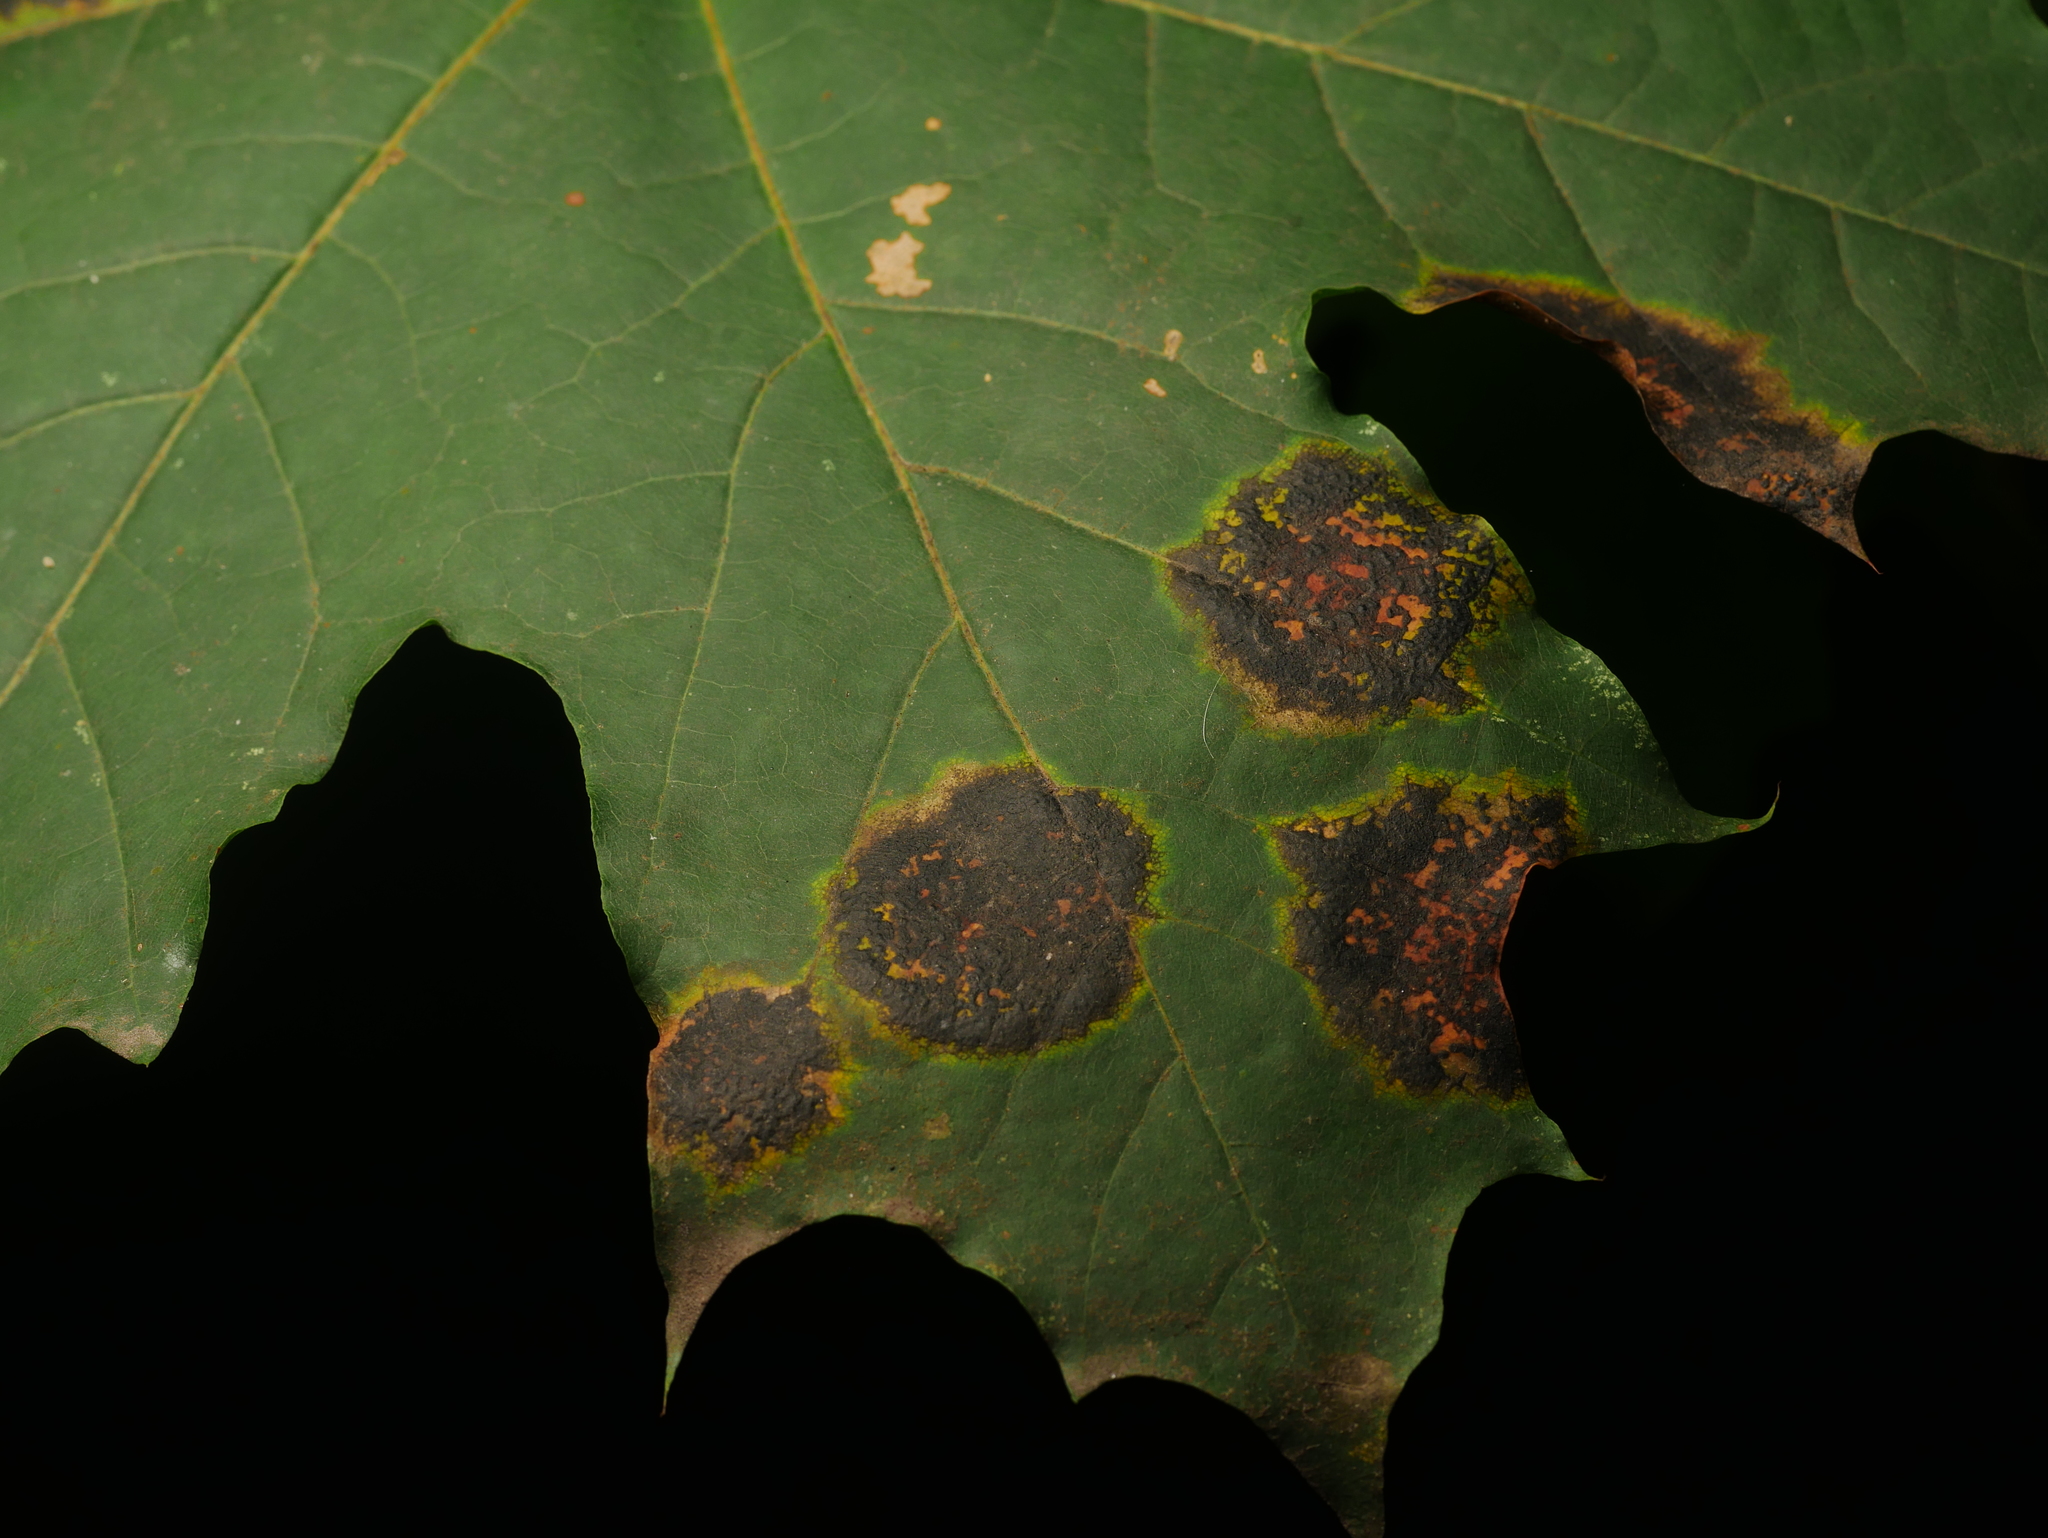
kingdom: Fungi
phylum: Ascomycota
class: Leotiomycetes
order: Rhytismatales
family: Rhytismataceae
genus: Rhytisma
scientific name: Rhytisma acerinum
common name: European tar spot
